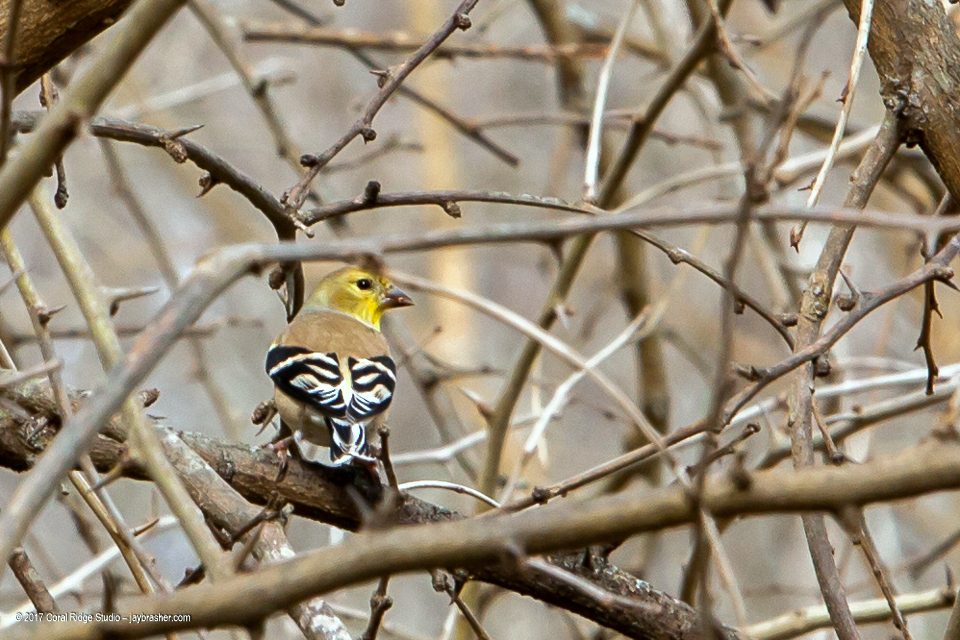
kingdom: Animalia
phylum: Chordata
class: Aves
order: Passeriformes
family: Fringillidae
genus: Spinus
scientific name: Spinus tristis
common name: American goldfinch
